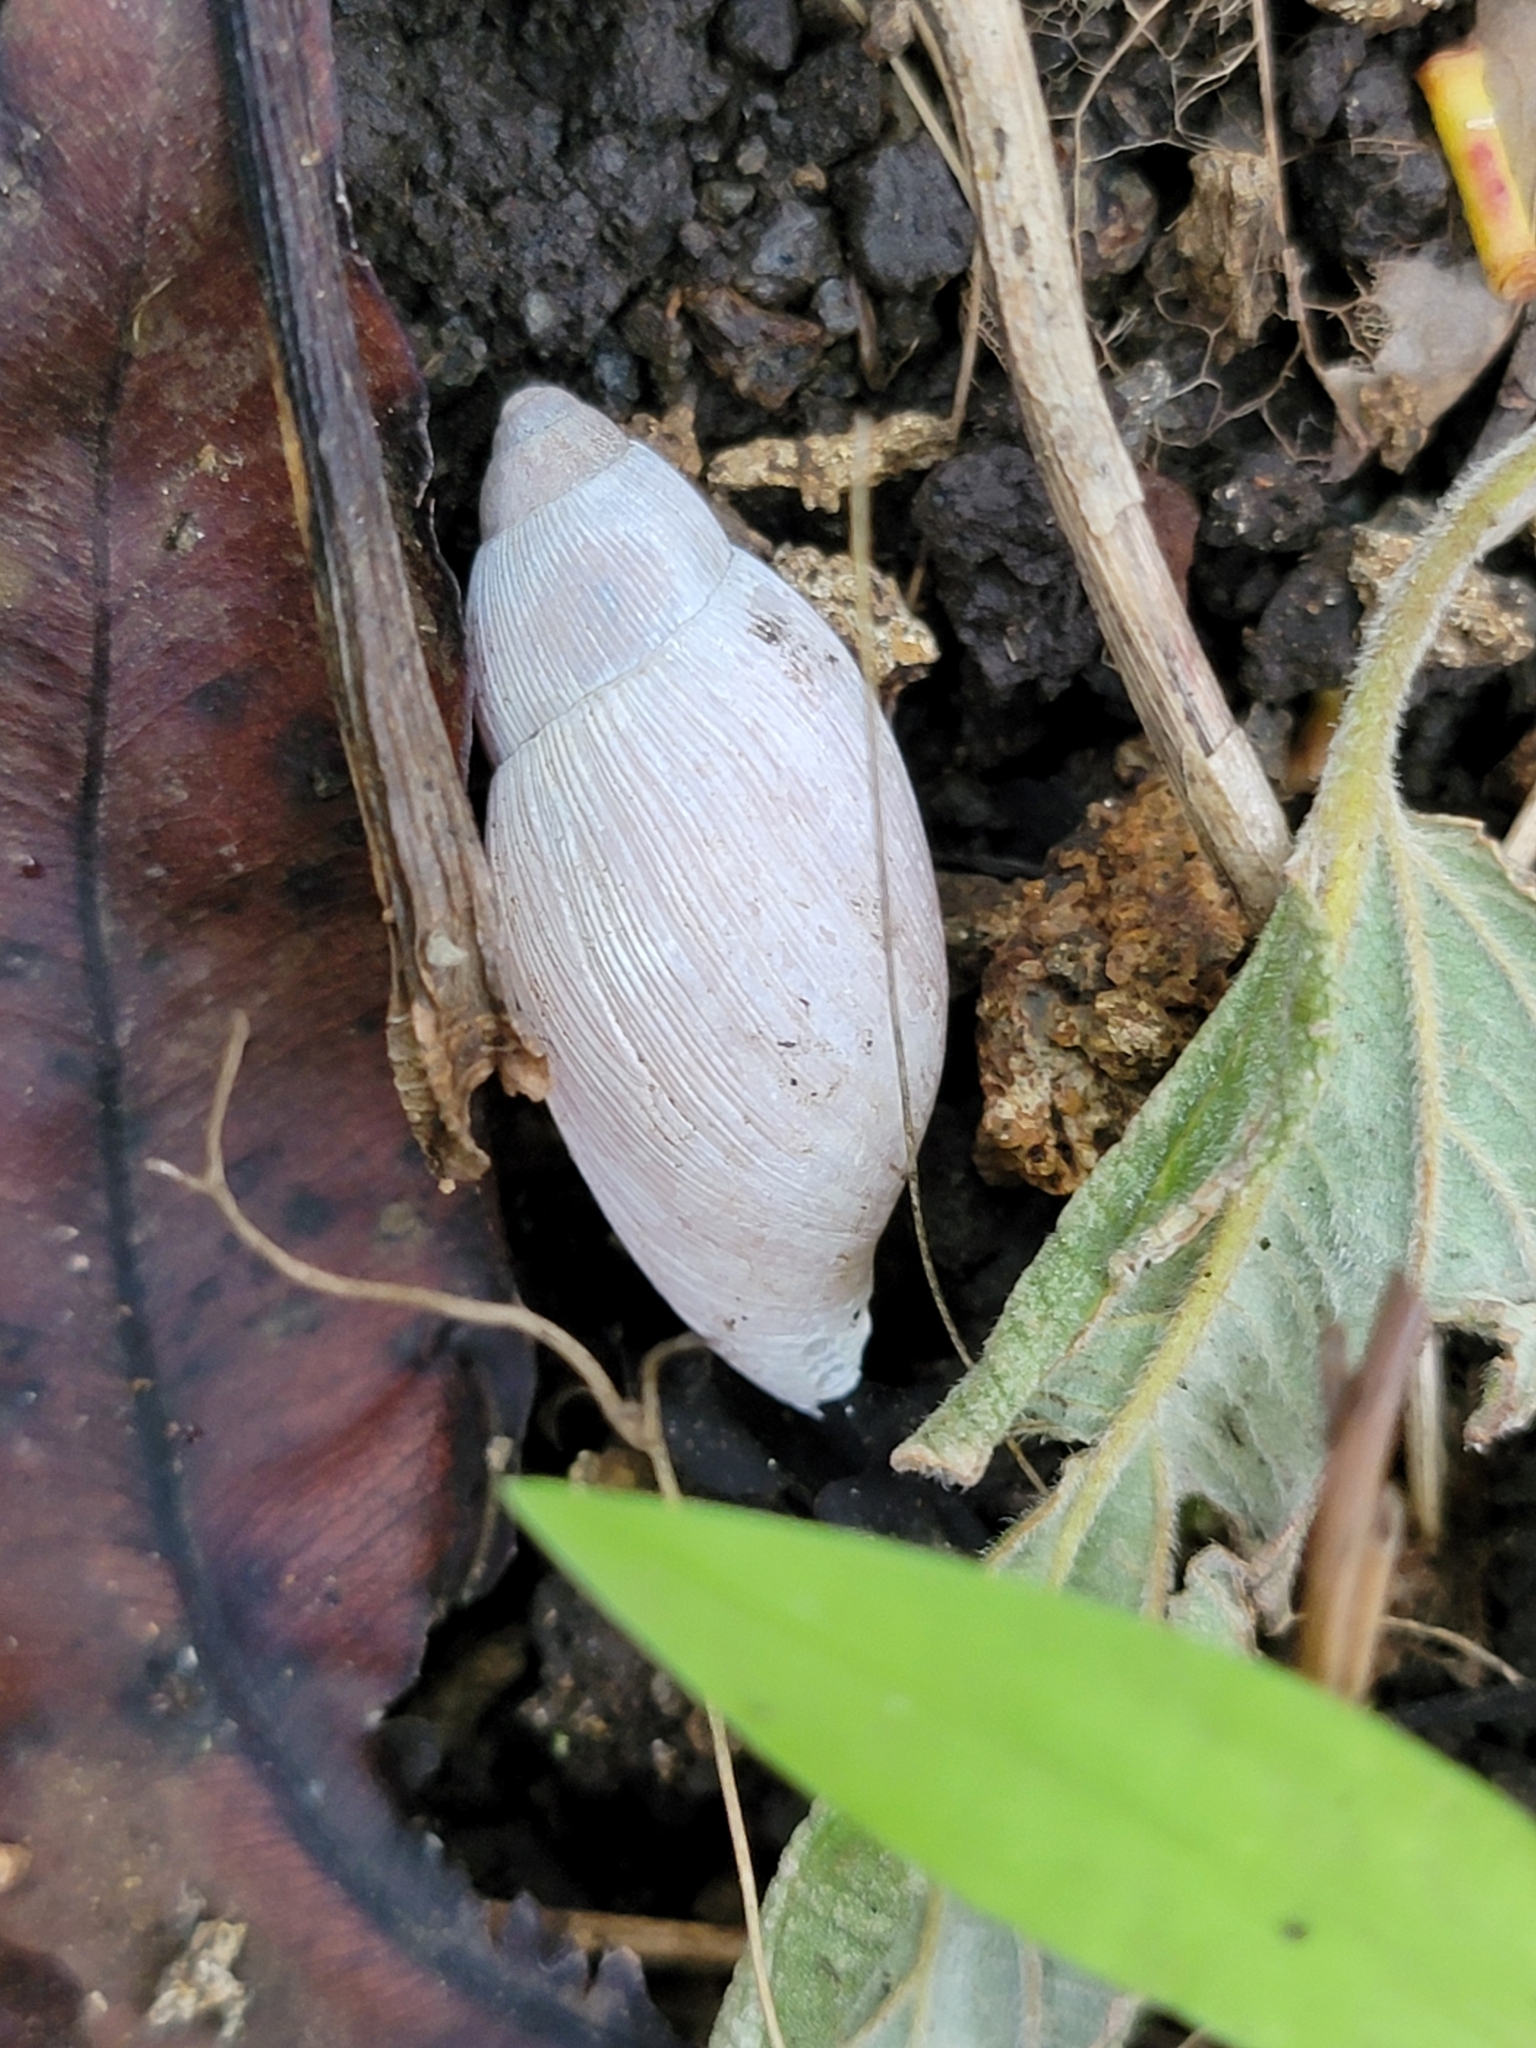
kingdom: Animalia
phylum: Mollusca
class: Gastropoda
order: Stylommatophora
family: Spiraxidae
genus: Euglandina
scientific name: Euglandina rosea
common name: Rosy wolfsnail
